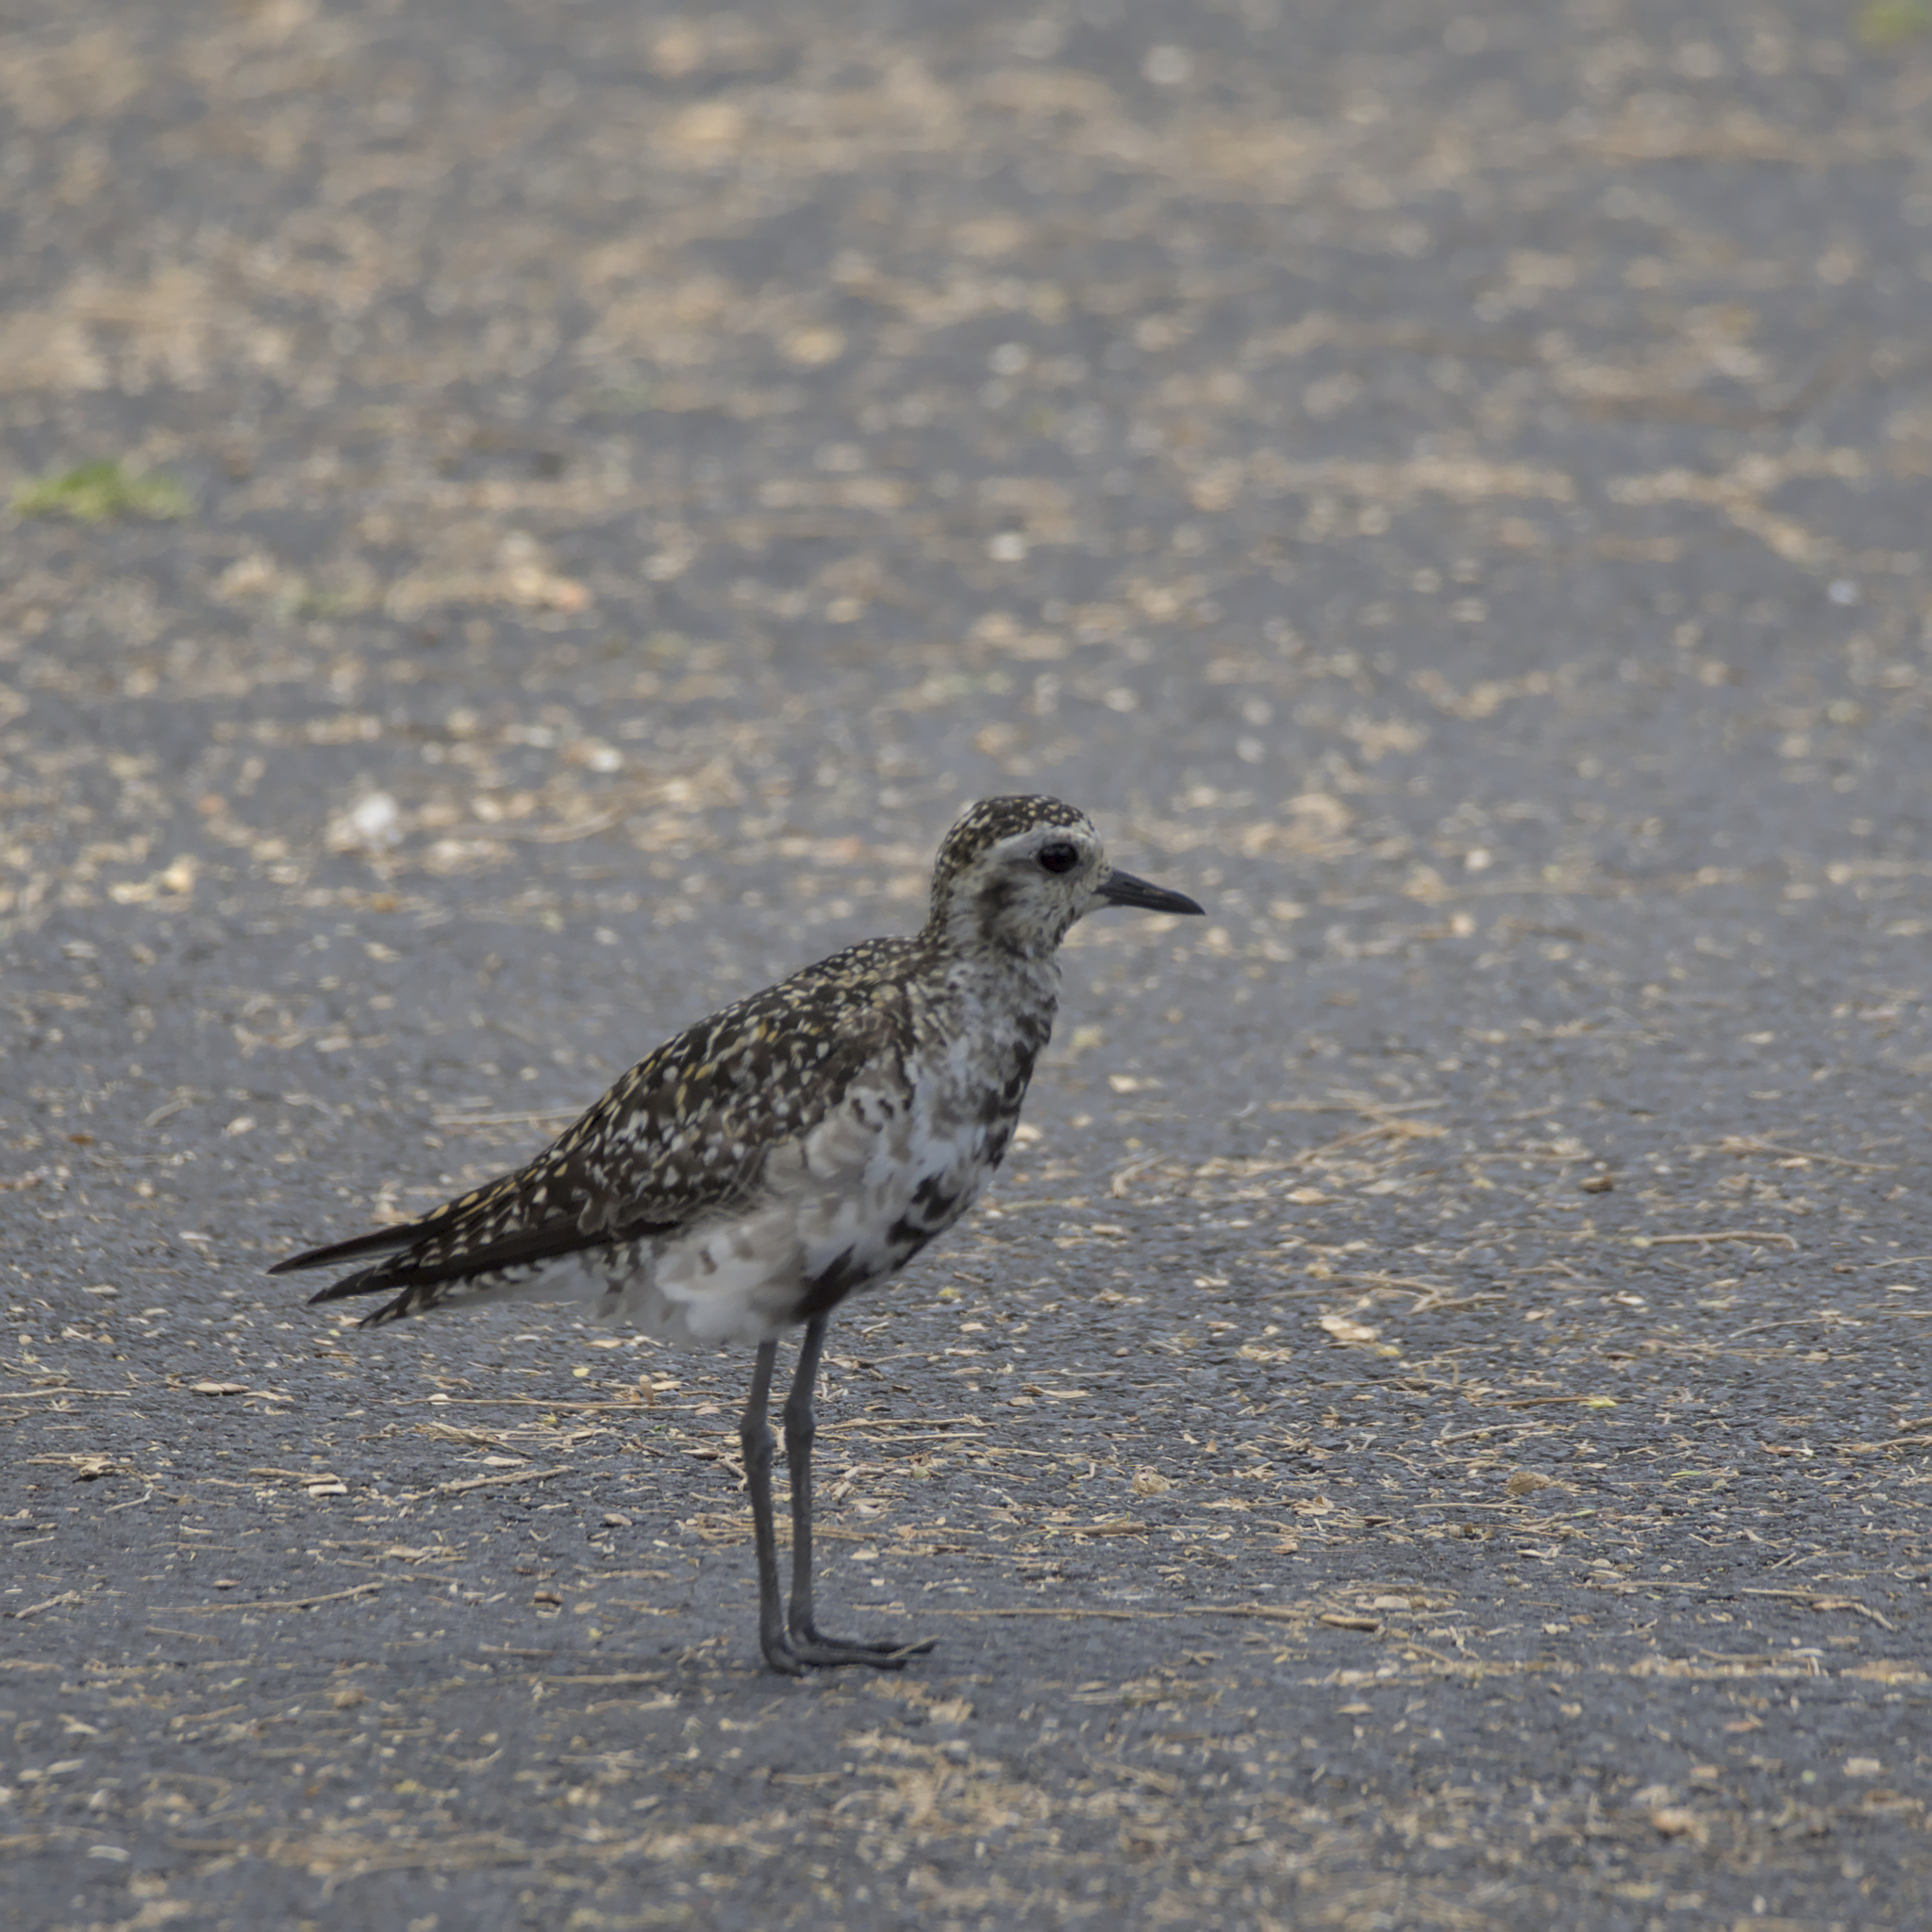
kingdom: Animalia
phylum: Chordata
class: Aves
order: Charadriiformes
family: Charadriidae
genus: Pluvialis
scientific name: Pluvialis fulva
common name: Pacific golden plover
